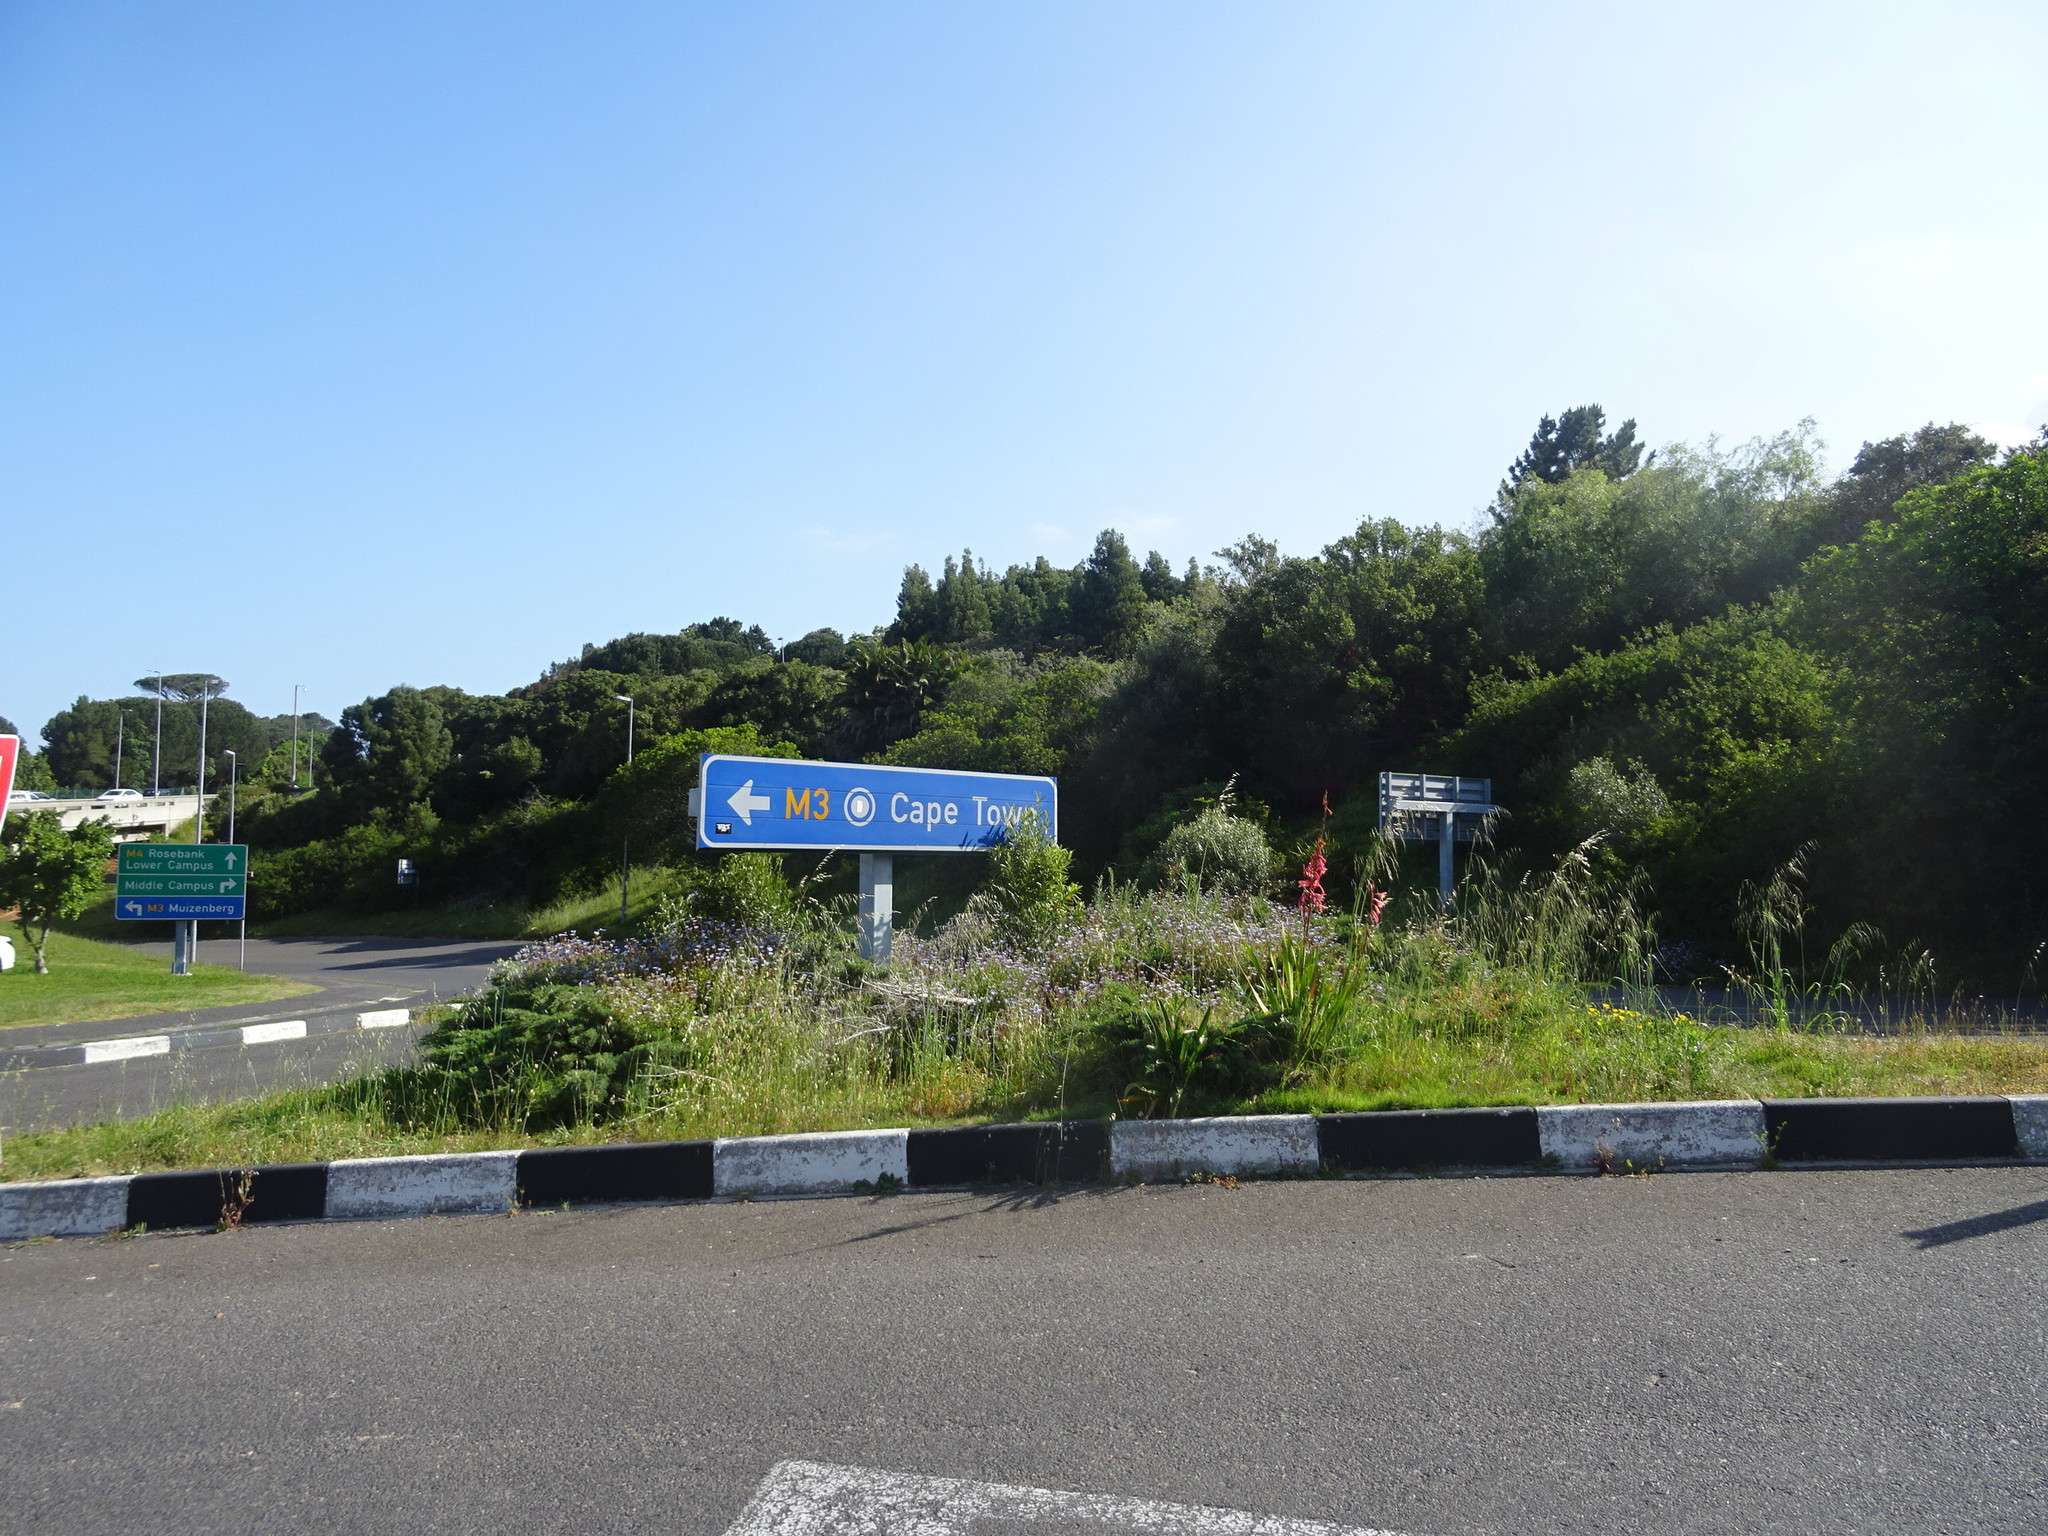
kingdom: Plantae
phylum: Tracheophyta
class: Liliopsida
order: Asparagales
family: Iridaceae
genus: Watsonia
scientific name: Watsonia meriana
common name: Bulbil bugle-lily
